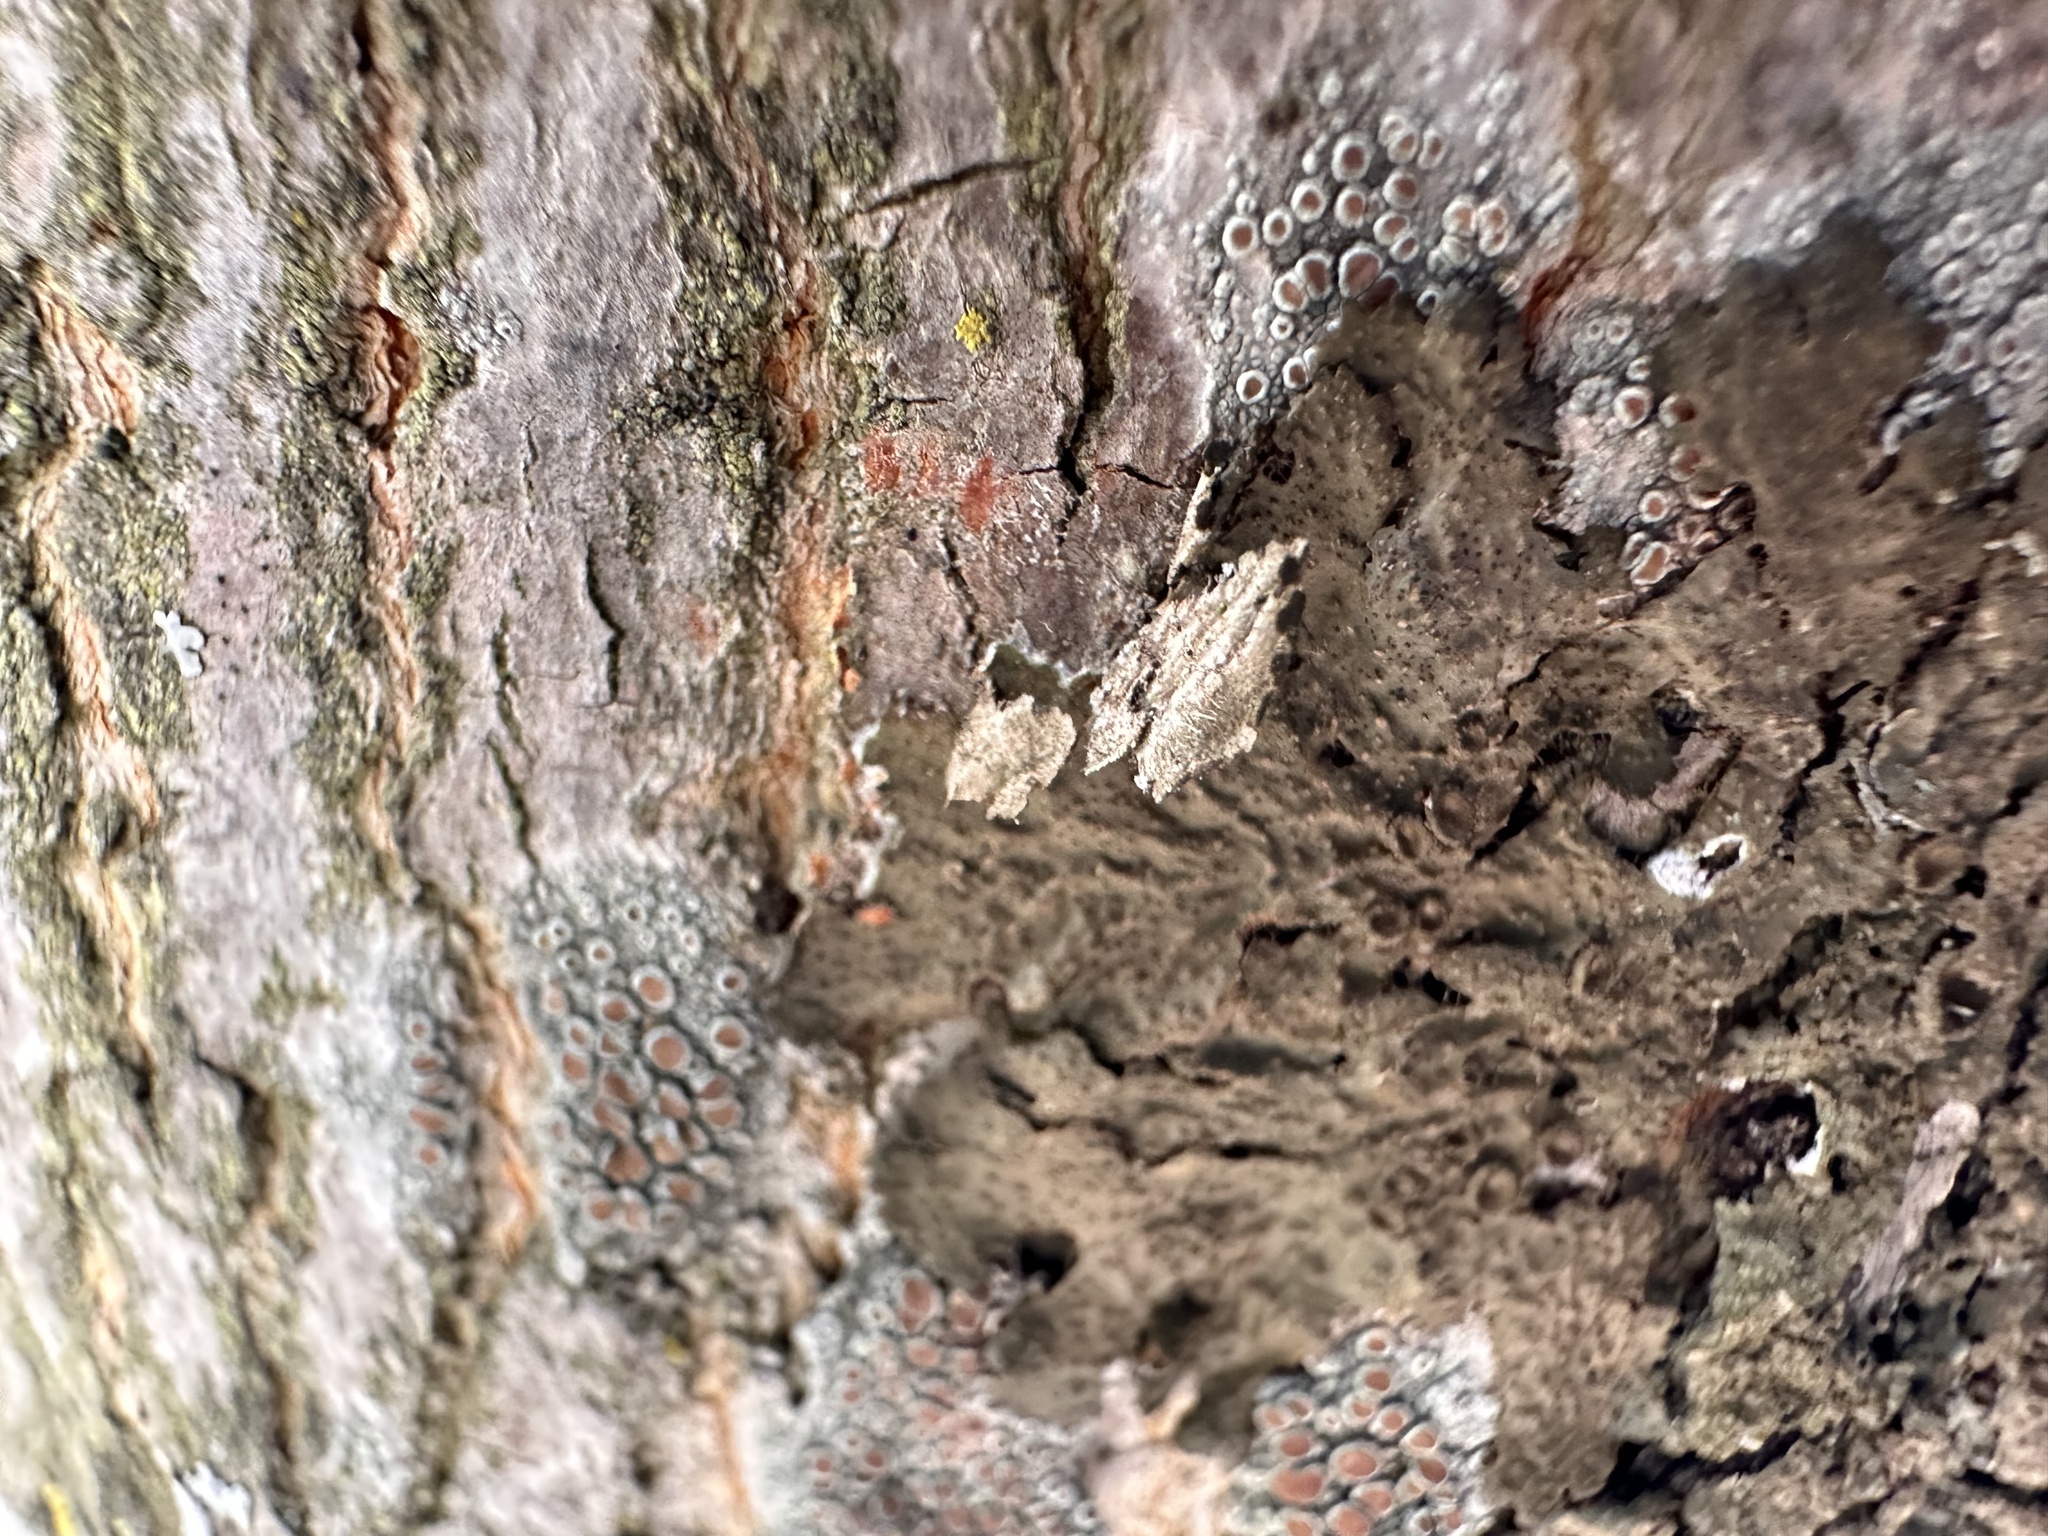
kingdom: Fungi
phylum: Ascomycota
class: Lecanoromycetes
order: Lecanorales
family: Parmeliaceae
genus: Melanohalea
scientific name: Melanohalea exasperata
